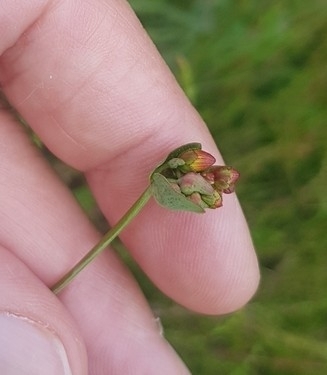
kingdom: Plantae
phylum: Tracheophyta
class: Magnoliopsida
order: Malpighiales
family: Hypericaceae
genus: Hypericum
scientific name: Hypericum pulchrum
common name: Slender st. john's-wort
